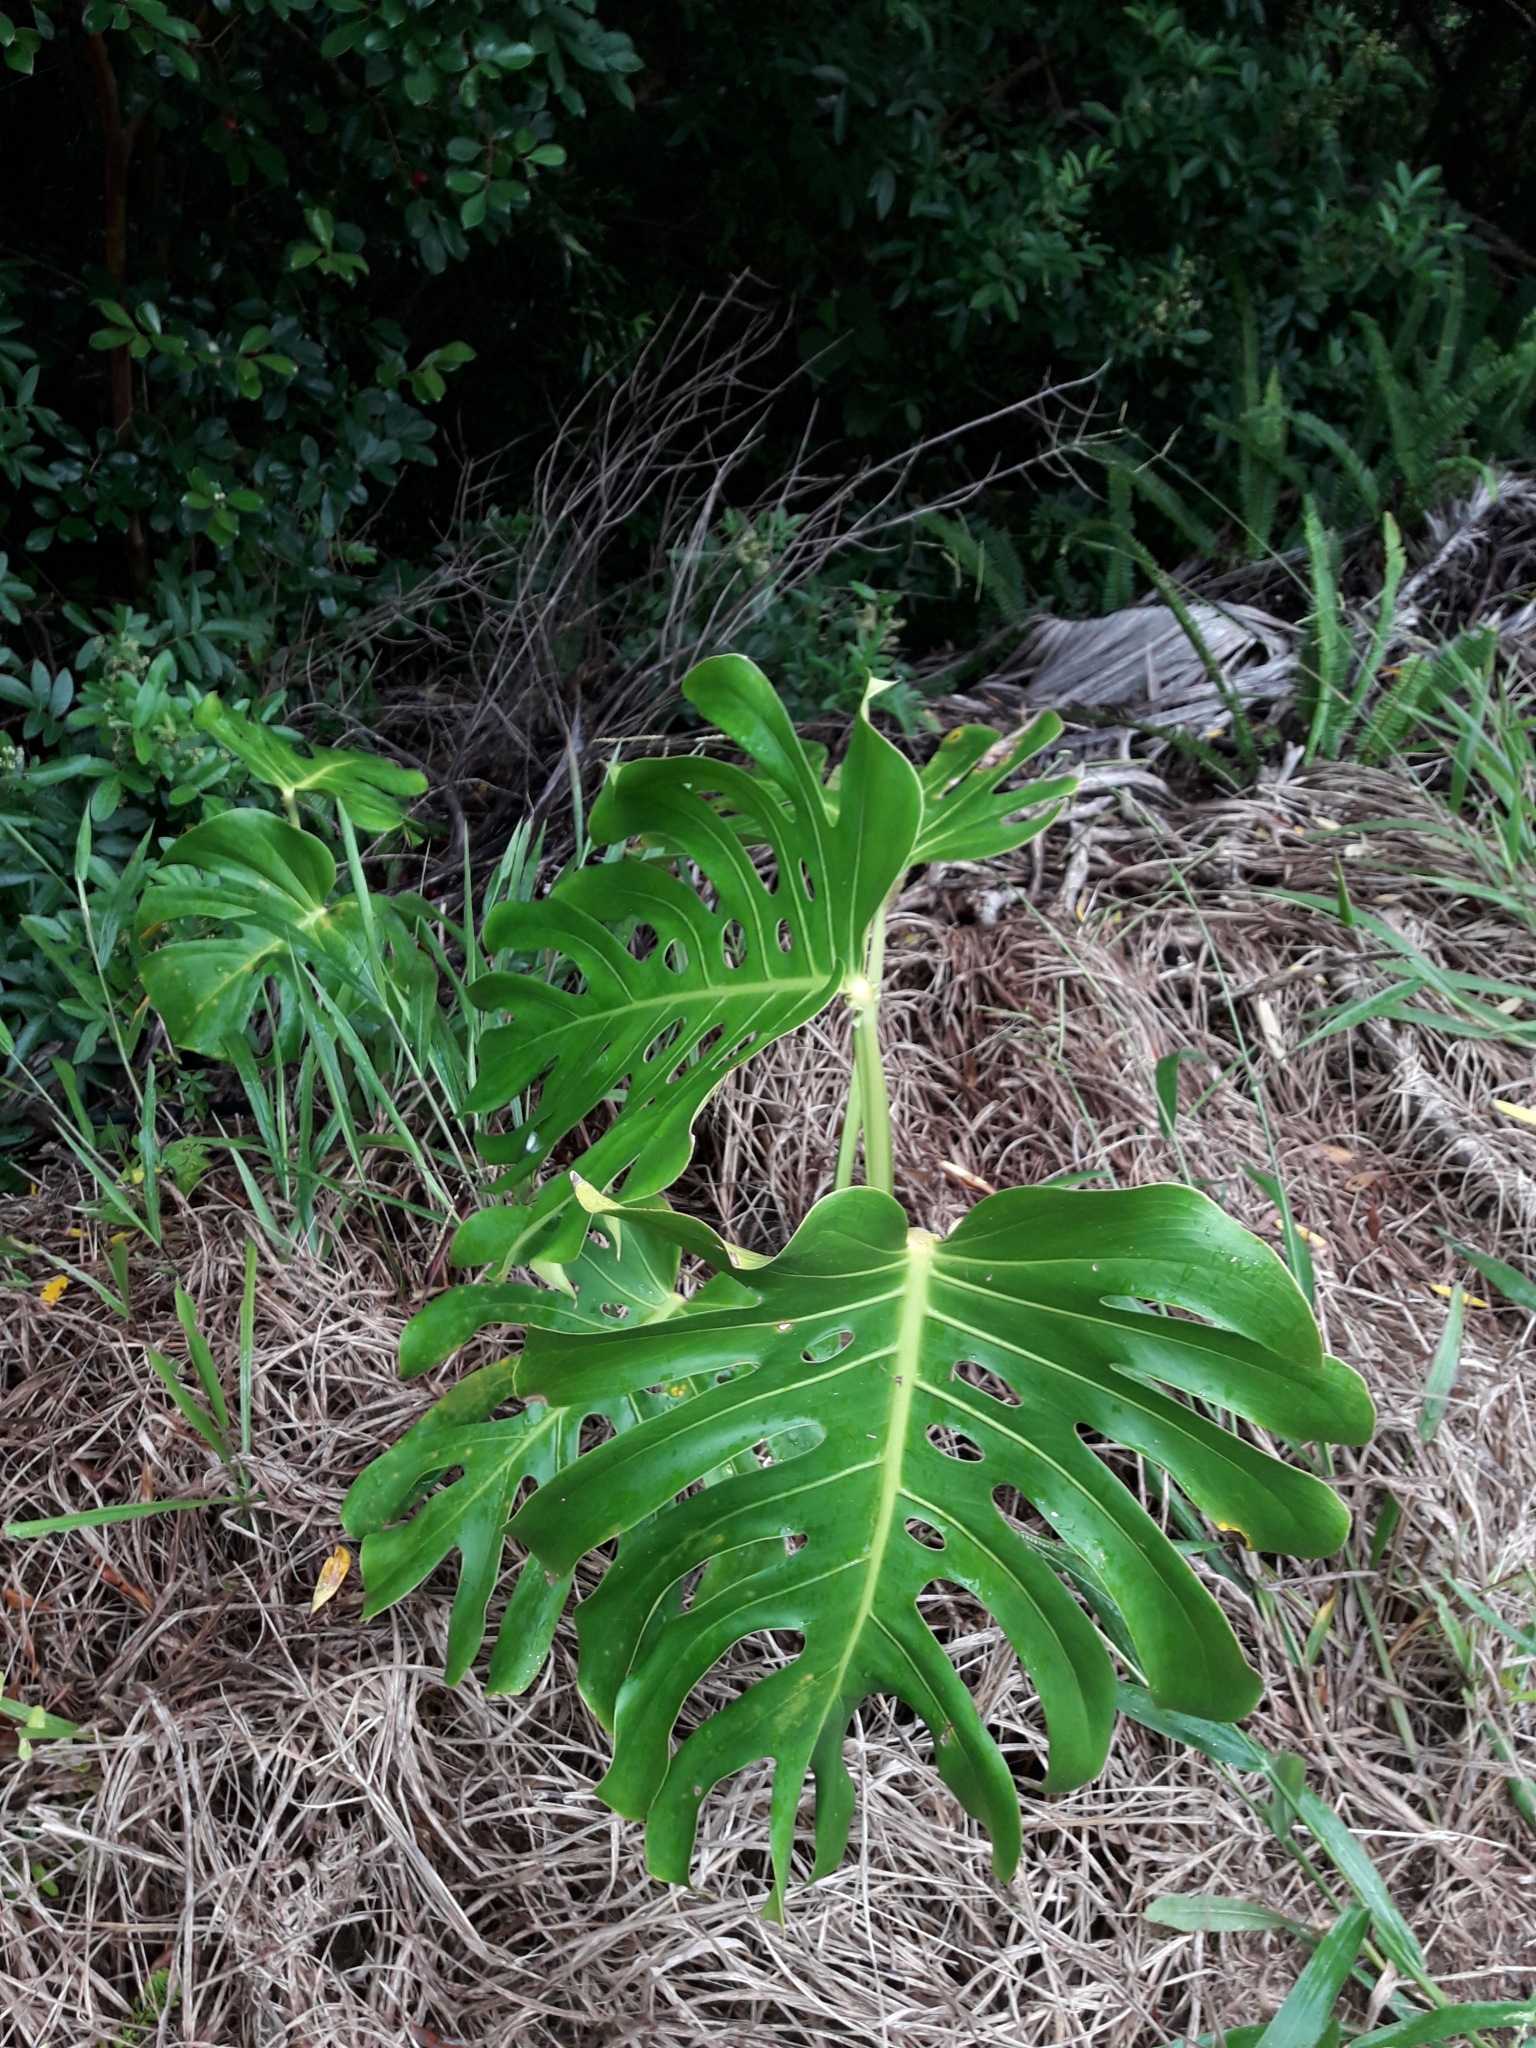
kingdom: Plantae
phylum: Tracheophyta
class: Liliopsida
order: Alismatales
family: Araceae
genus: Monstera
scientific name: Monstera deliciosa
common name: Cut-leaf-philodendron
